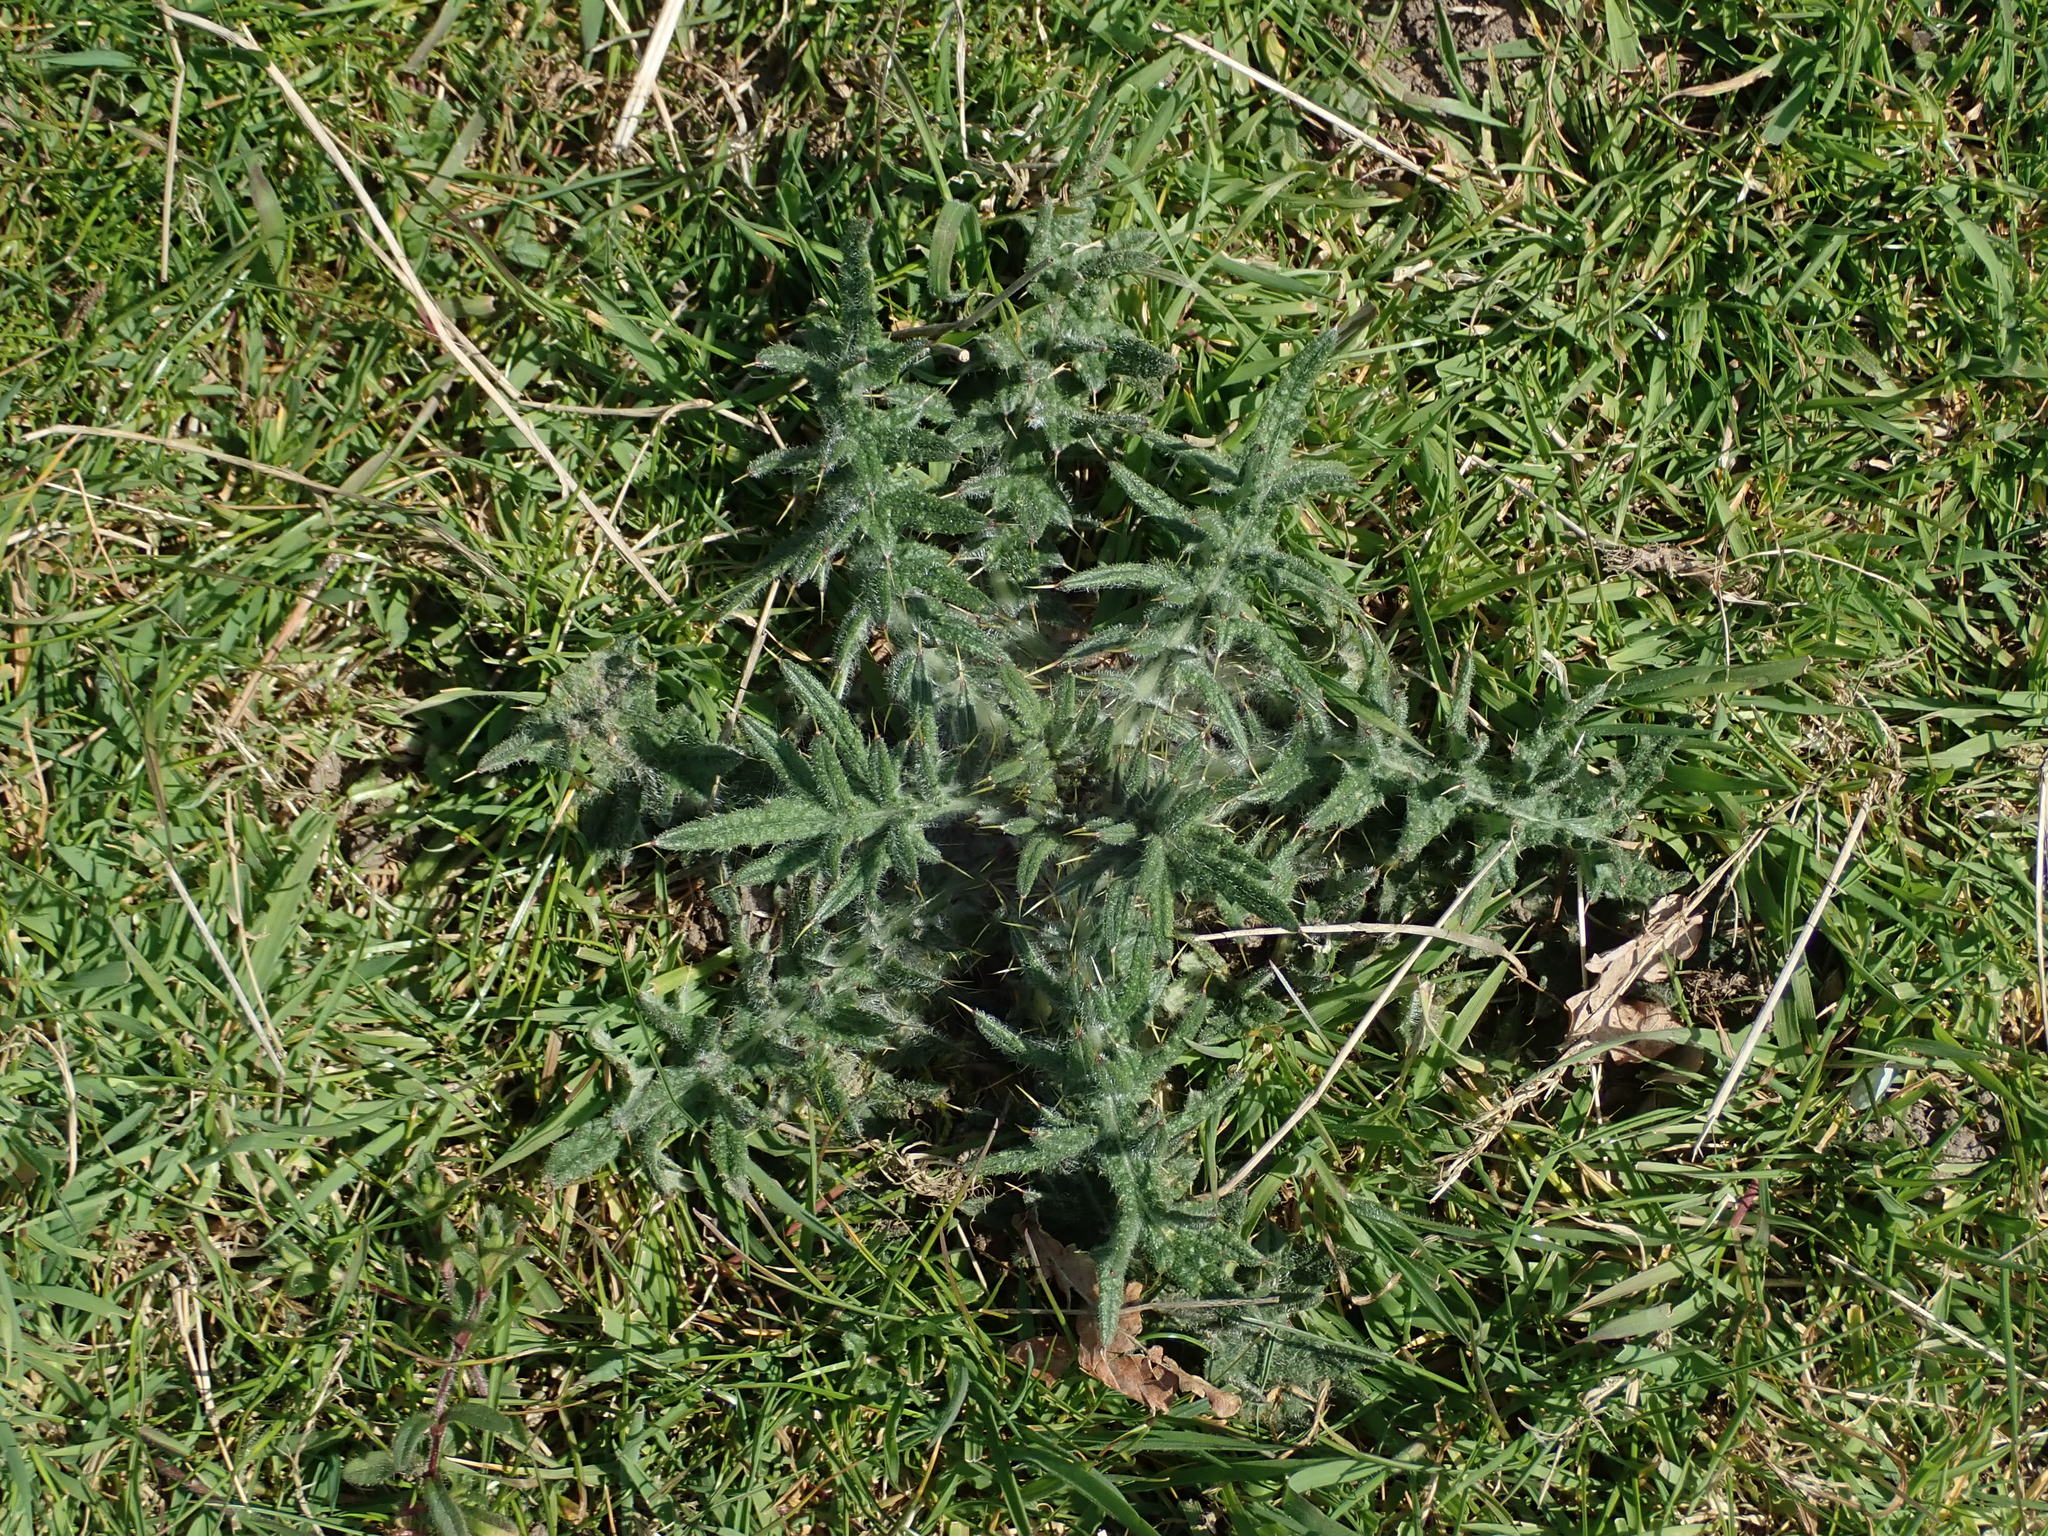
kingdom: Plantae
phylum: Tracheophyta
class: Magnoliopsida
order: Asterales
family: Asteraceae
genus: Cirsium
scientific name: Cirsium vulgare
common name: Bull thistle
